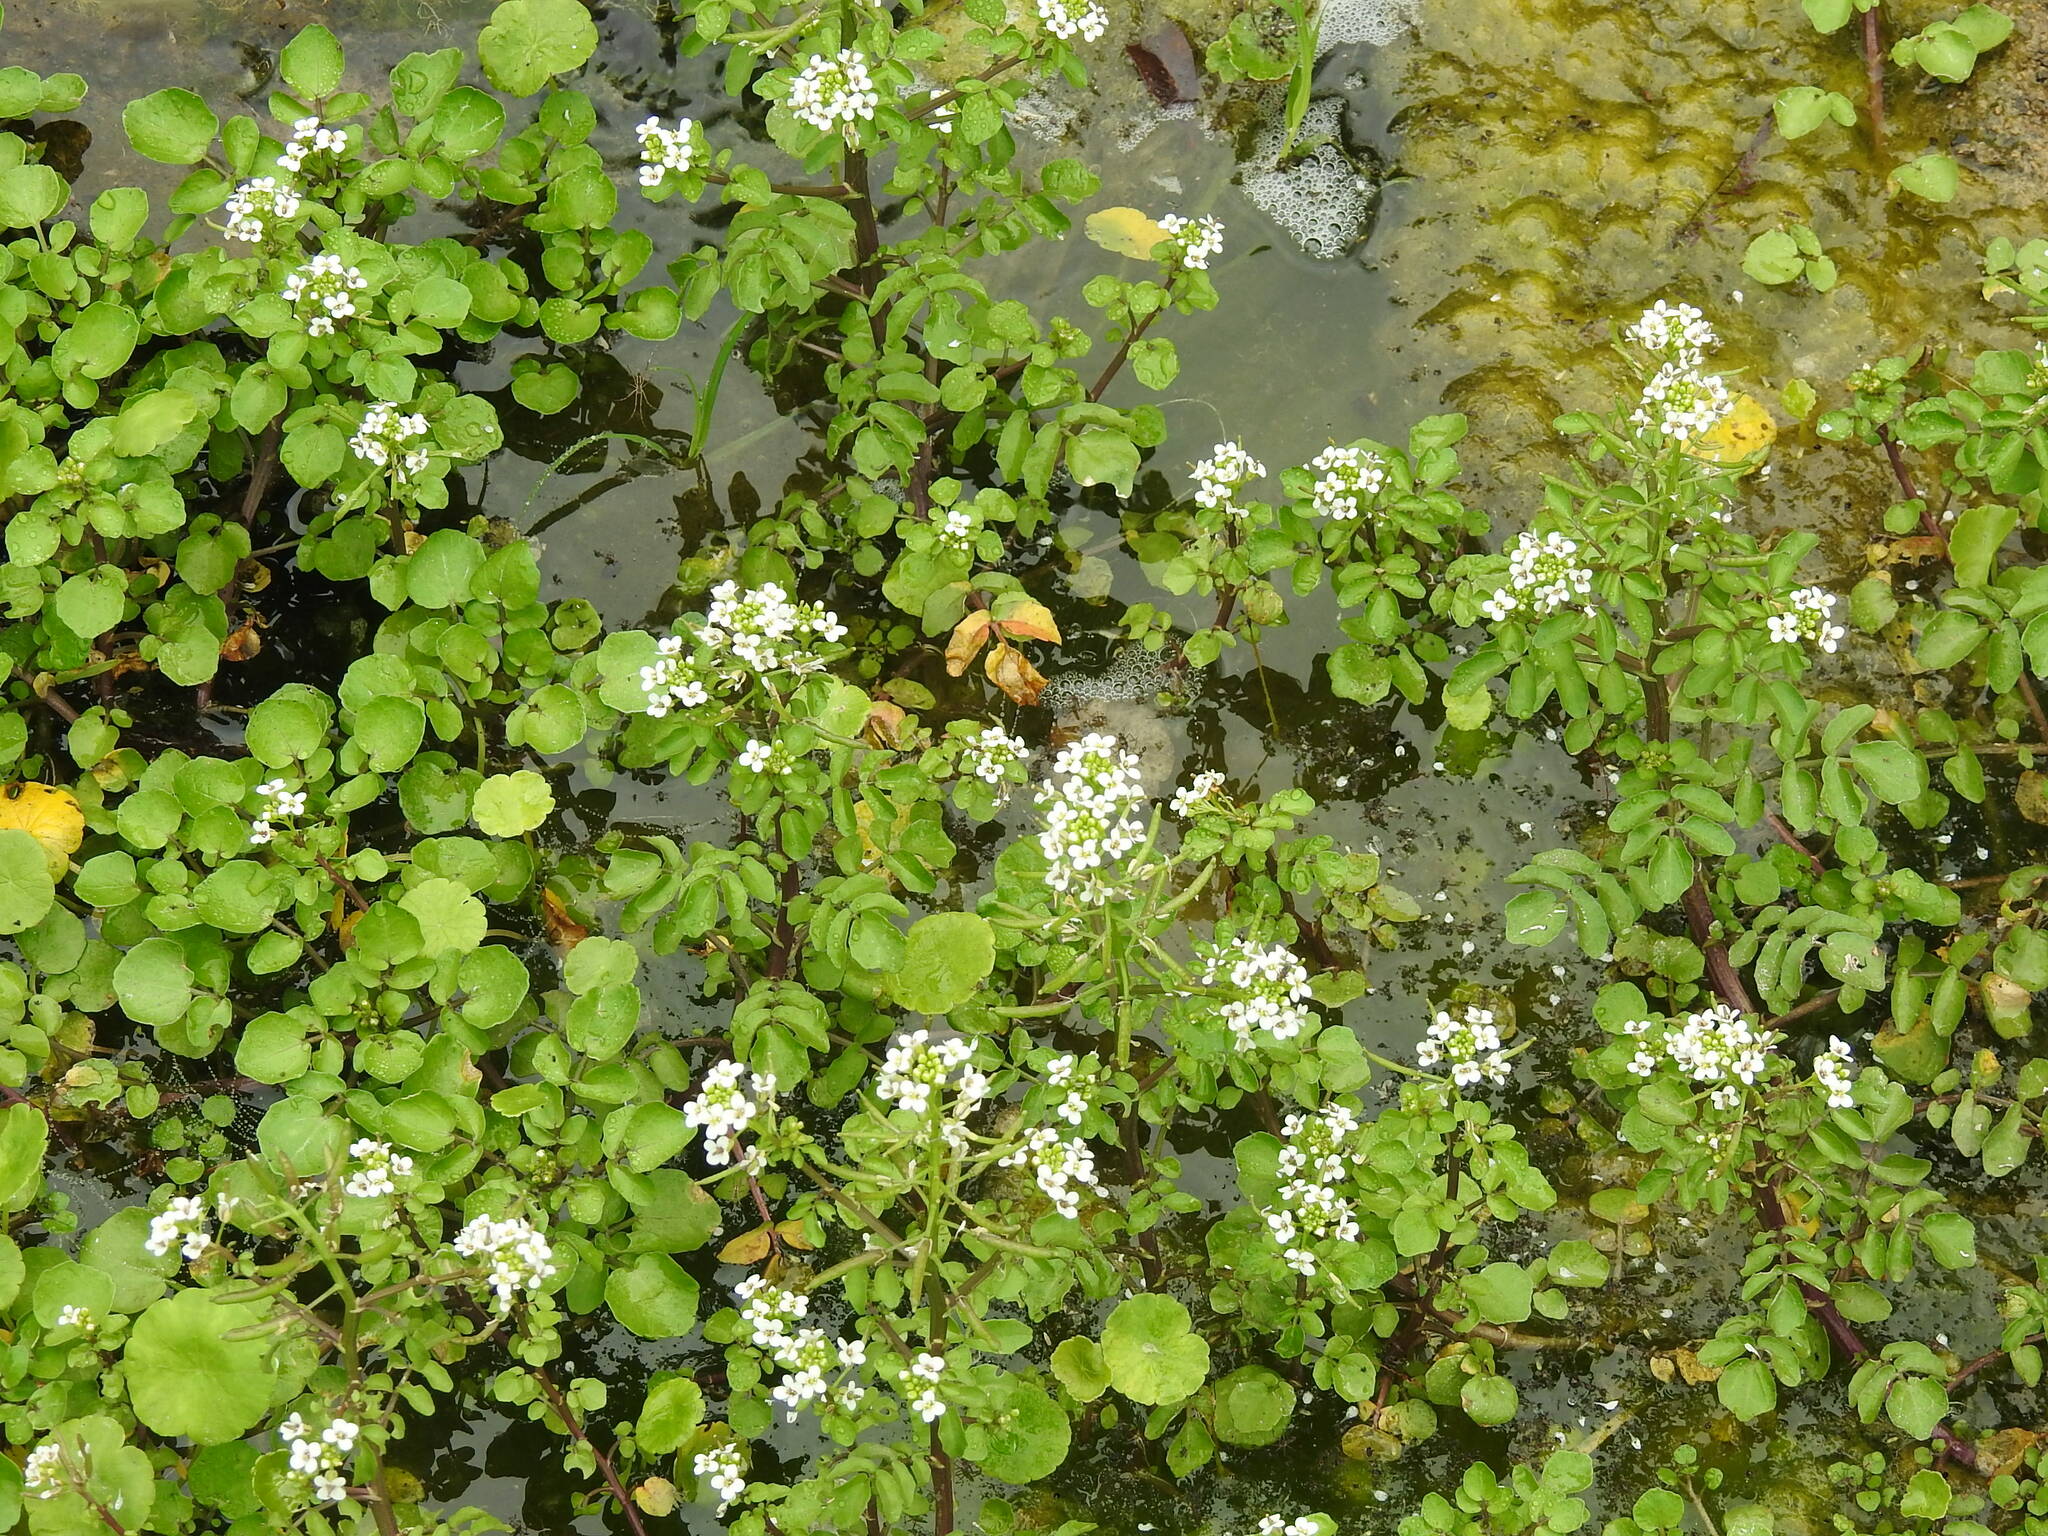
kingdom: Plantae
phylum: Tracheophyta
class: Magnoliopsida
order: Brassicales
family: Brassicaceae
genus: Nasturtium
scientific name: Nasturtium officinale
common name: Watercress
